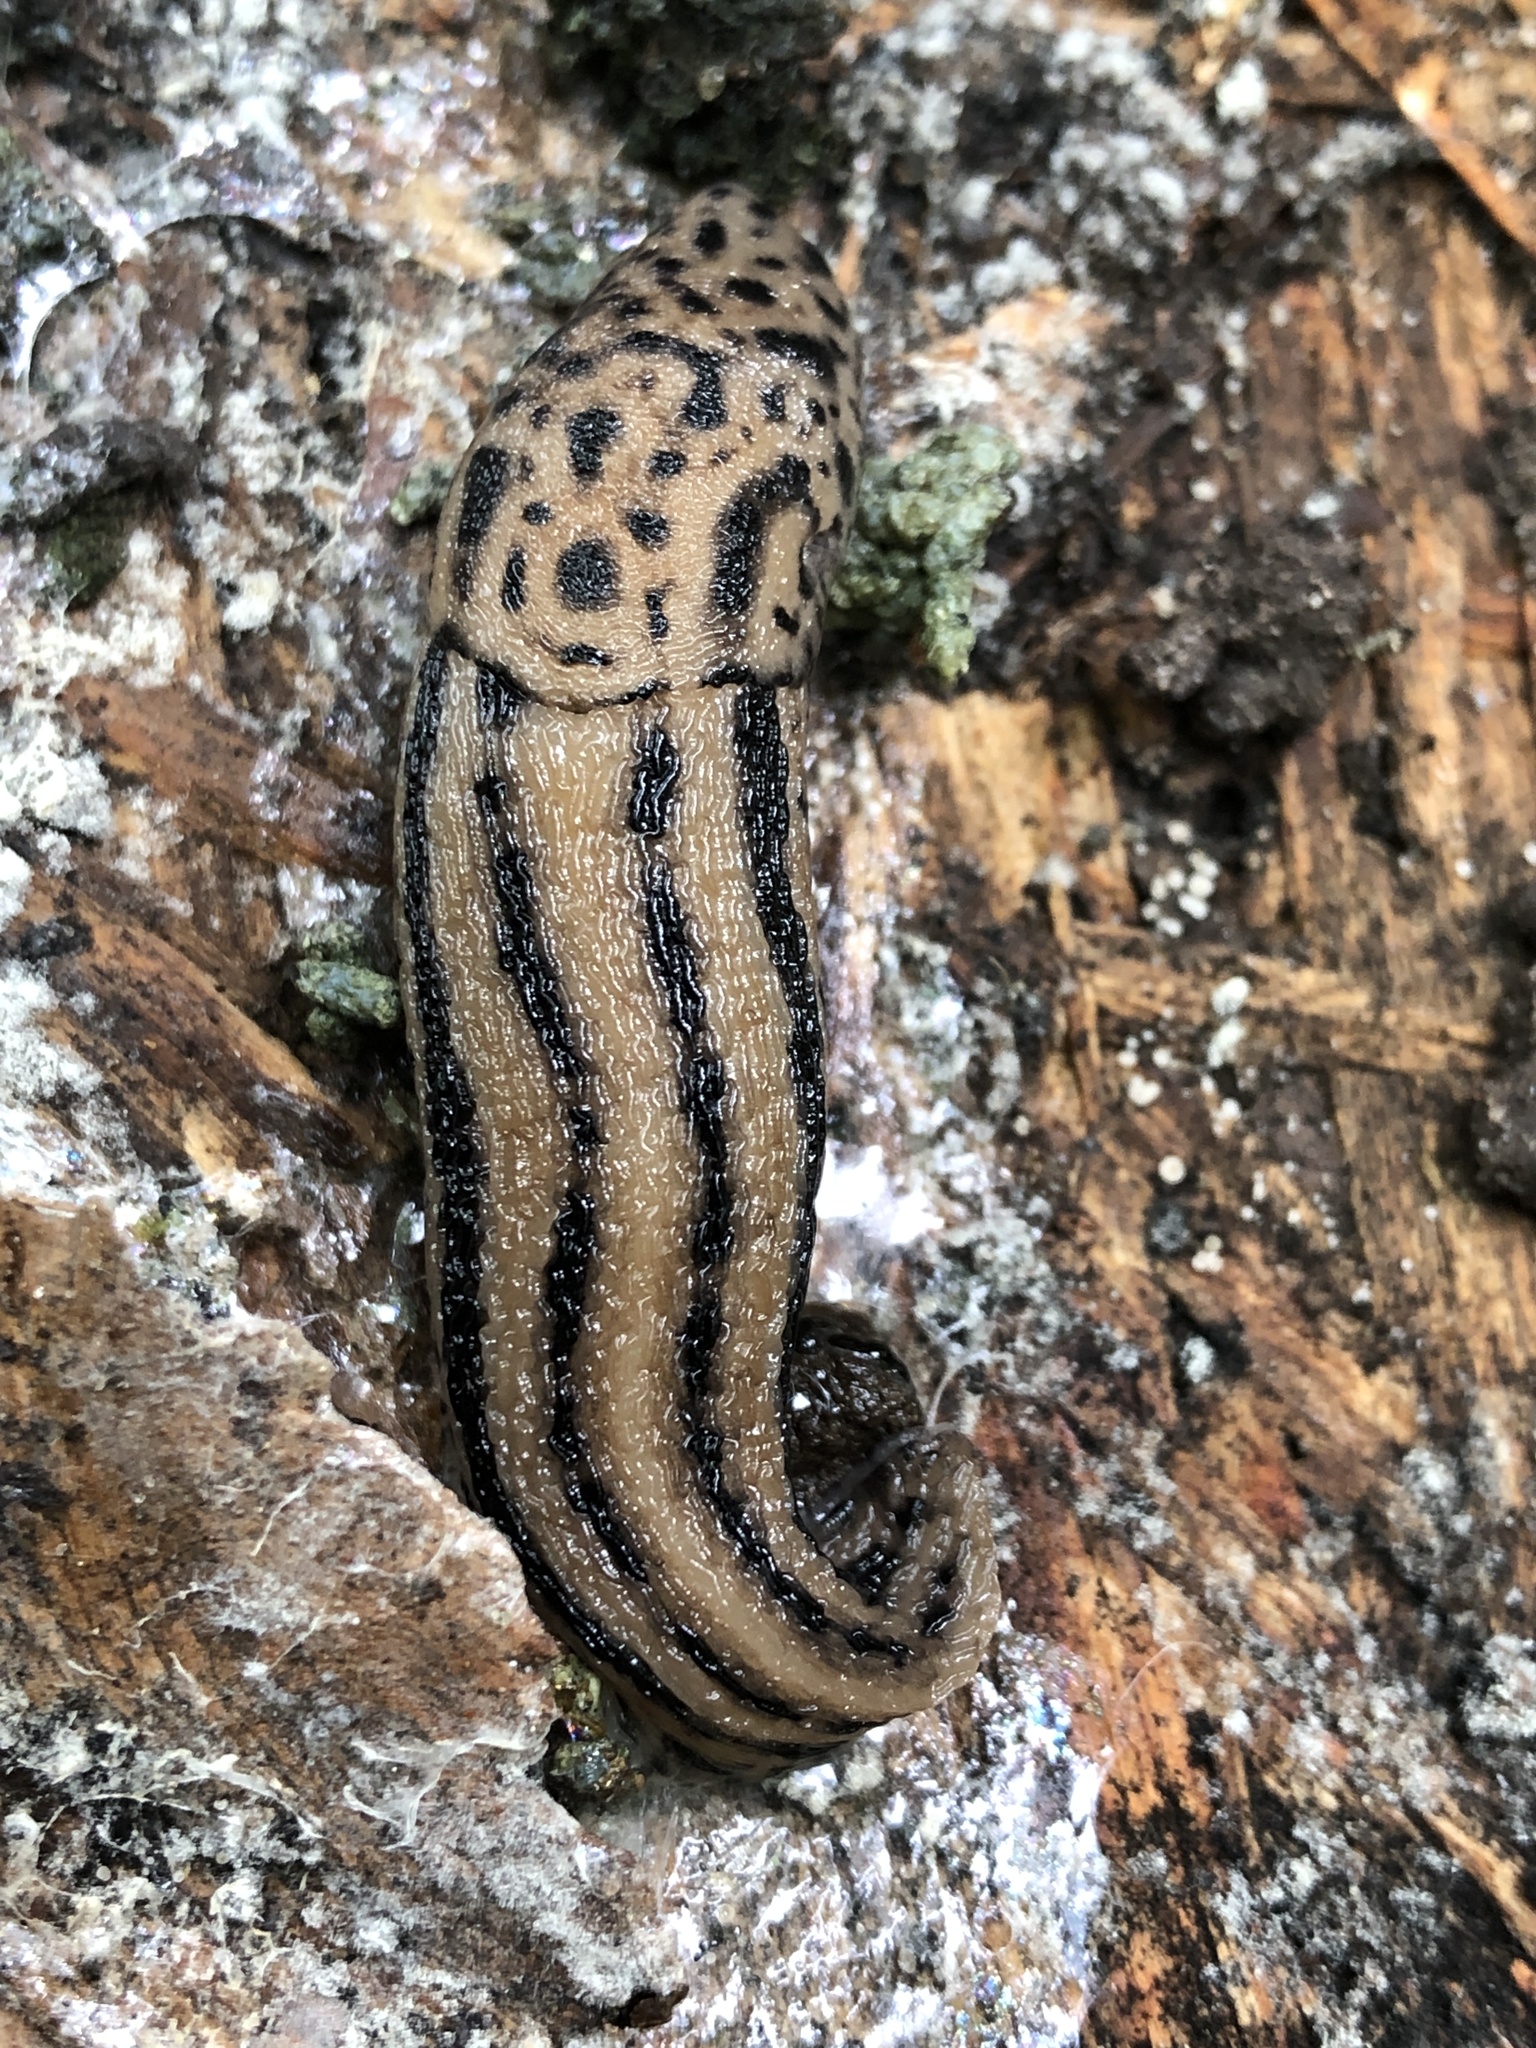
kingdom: Animalia
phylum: Mollusca
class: Gastropoda
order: Stylommatophora
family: Limacidae
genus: Limax
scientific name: Limax maximus
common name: Great grey slug
